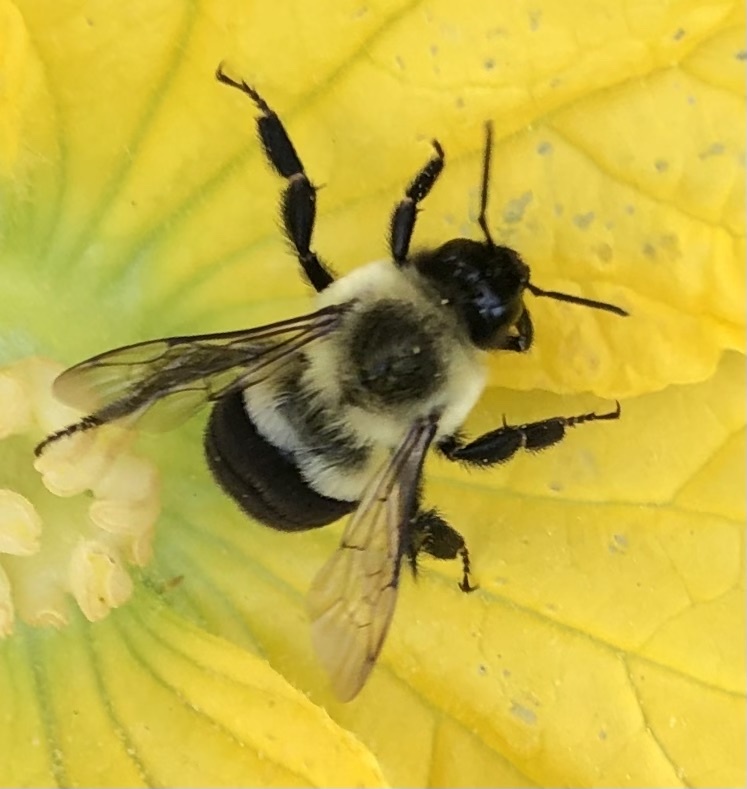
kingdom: Animalia
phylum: Arthropoda
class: Insecta
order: Hymenoptera
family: Apidae
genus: Bombus
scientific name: Bombus impatiens
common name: Common eastern bumble bee
